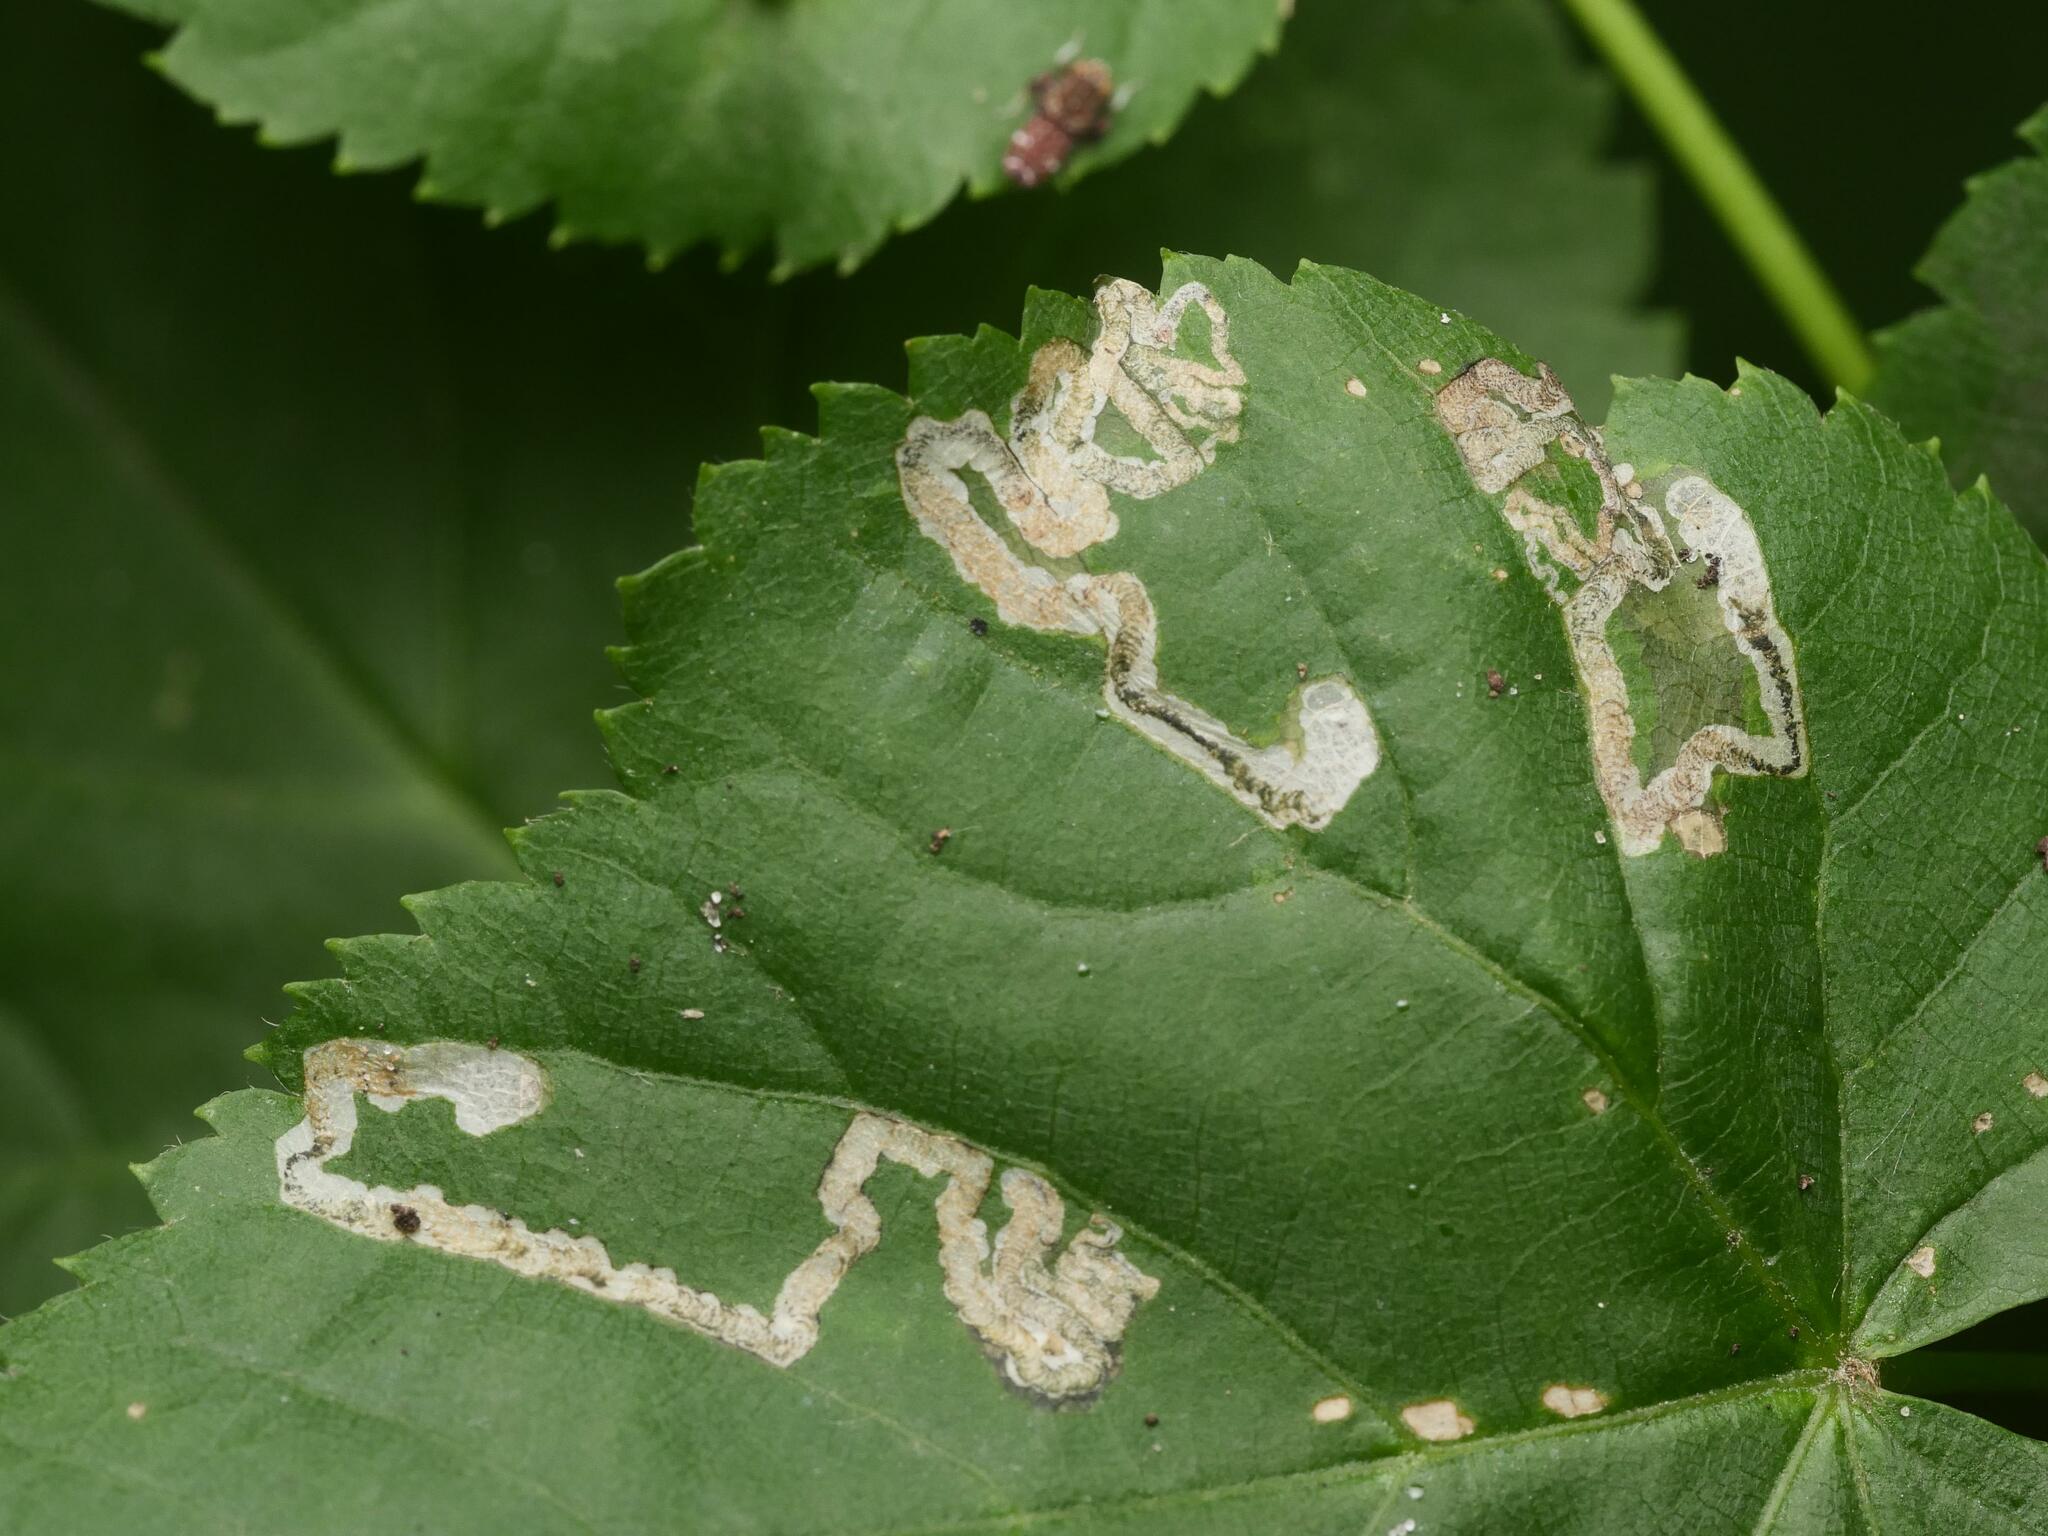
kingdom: Animalia
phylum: Arthropoda
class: Insecta
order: Lepidoptera
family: Nepticulidae
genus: Stigmella
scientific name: Stigmella tiliae
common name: Lime pigmy
